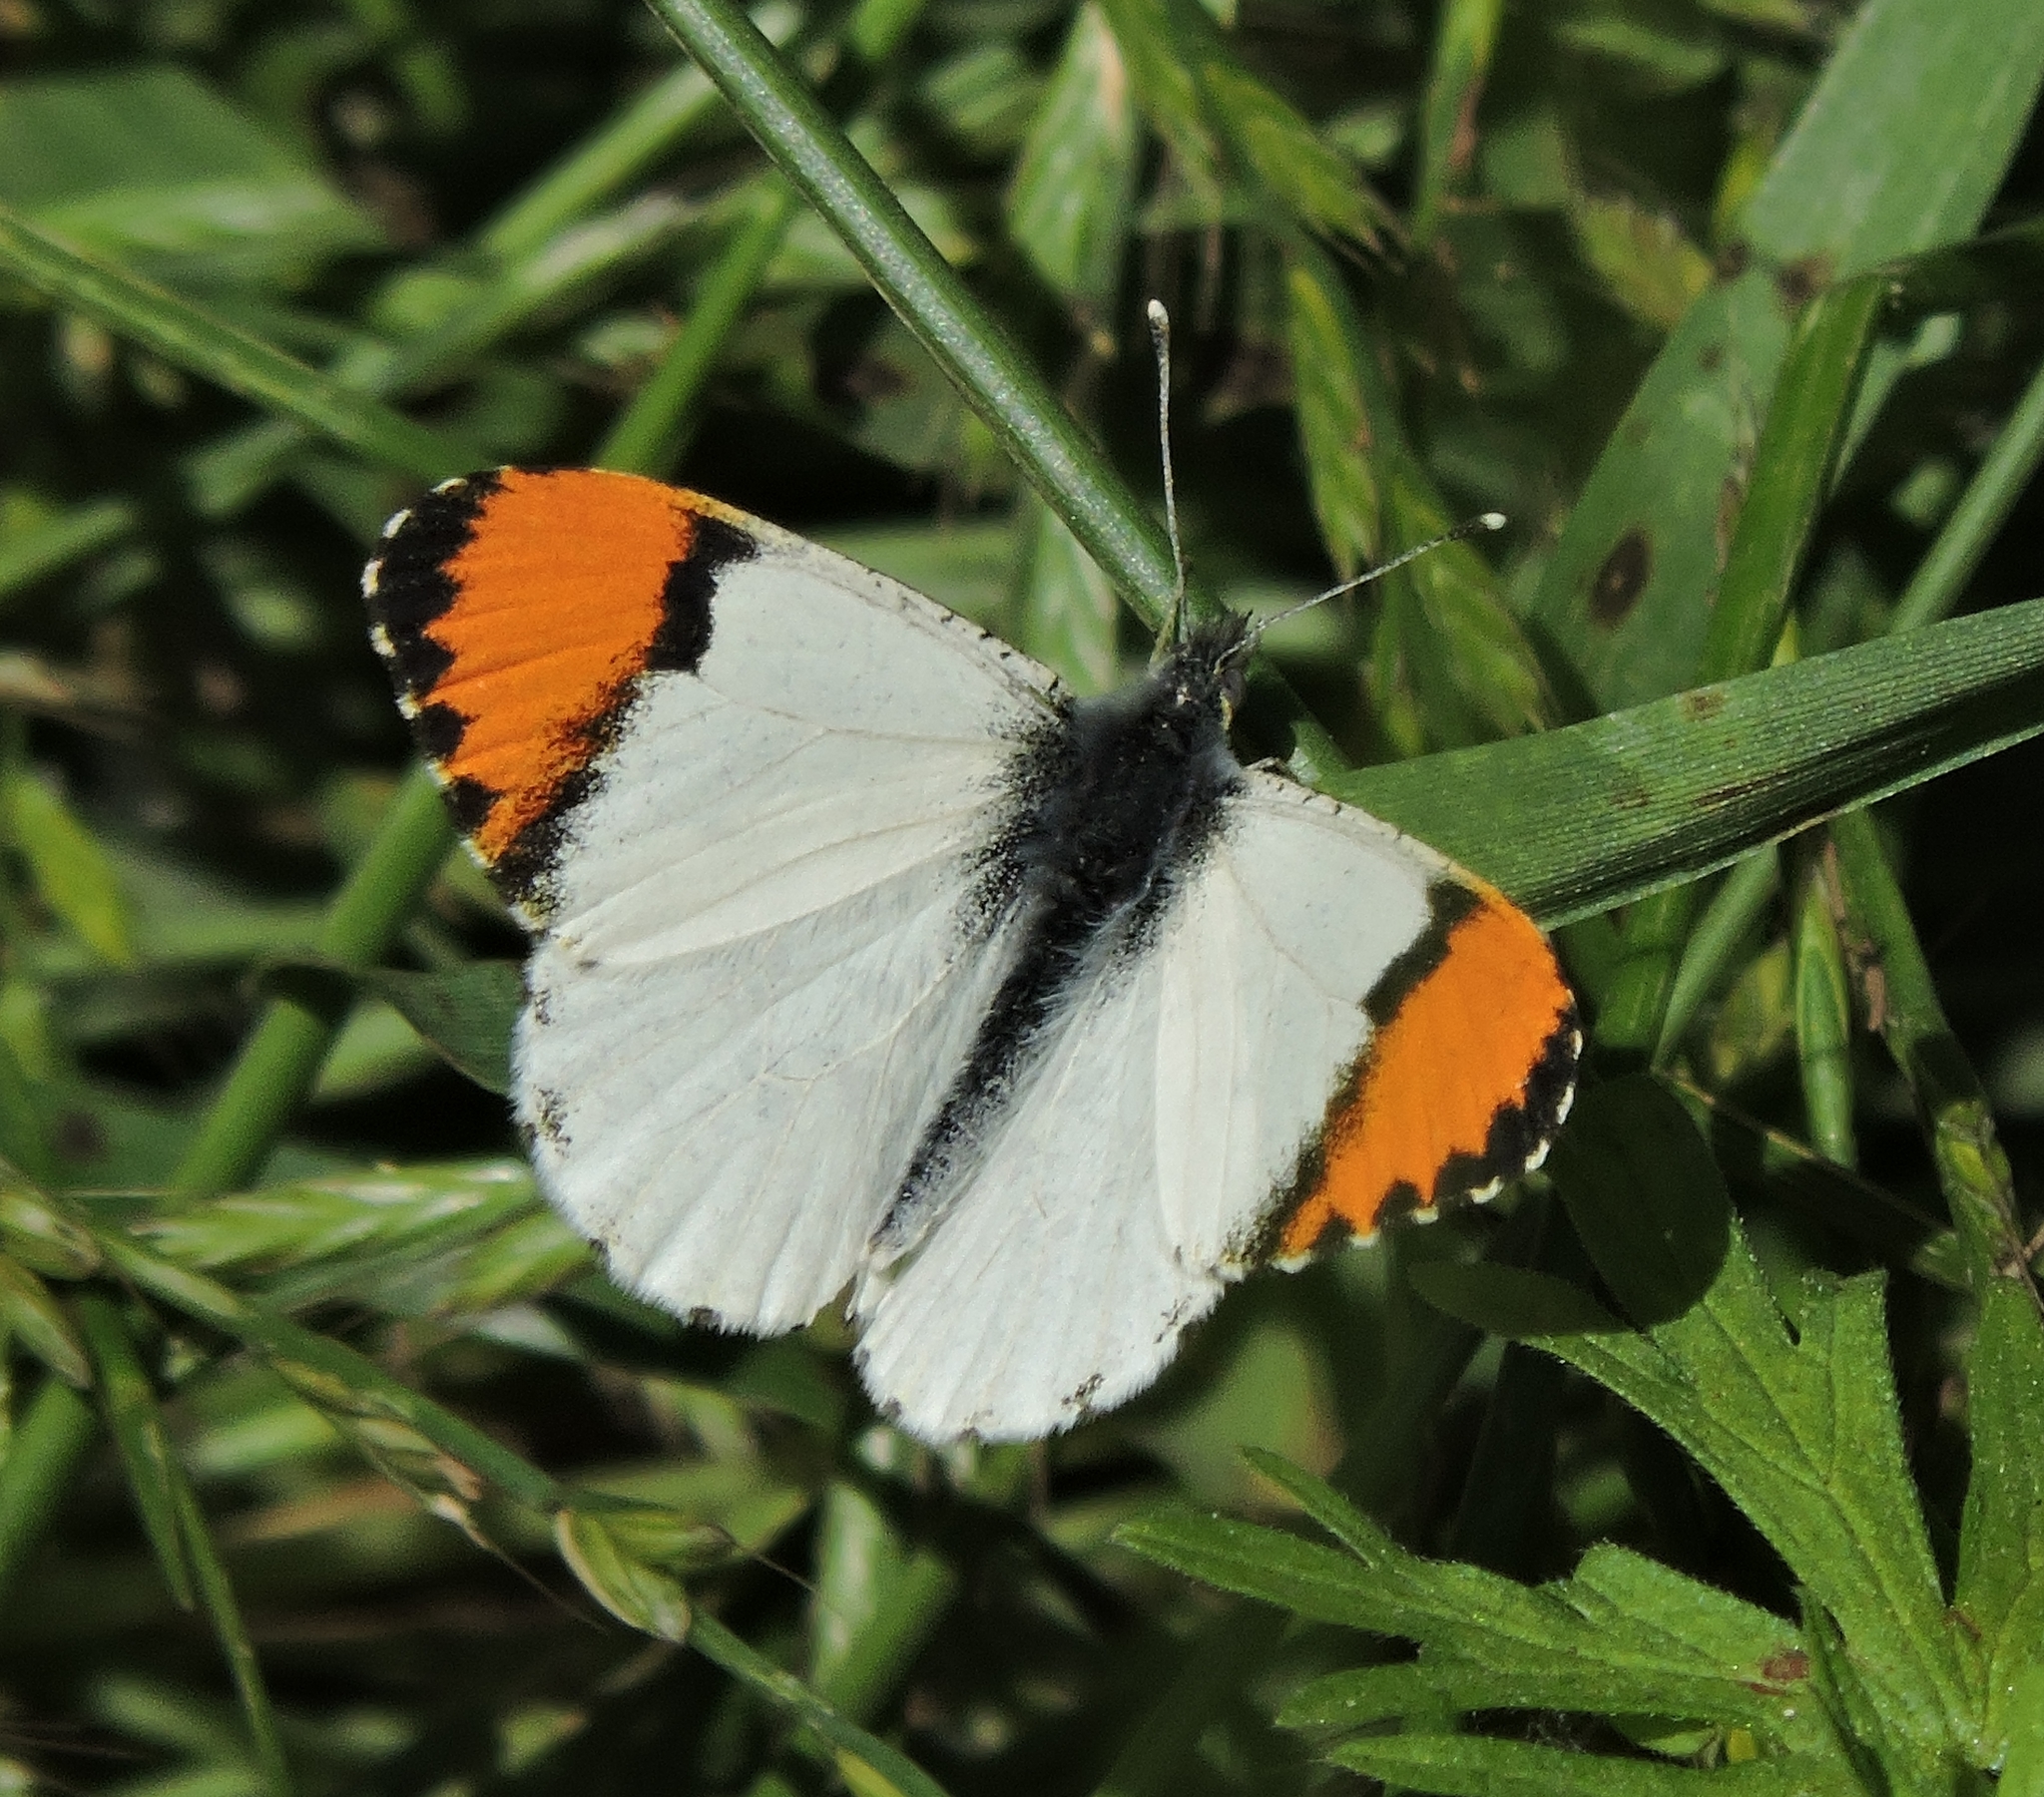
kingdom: Animalia
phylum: Arthropoda
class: Insecta
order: Lepidoptera
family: Pieridae
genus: Anthocharis
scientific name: Anthocharis sara
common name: Sara's orangetip
